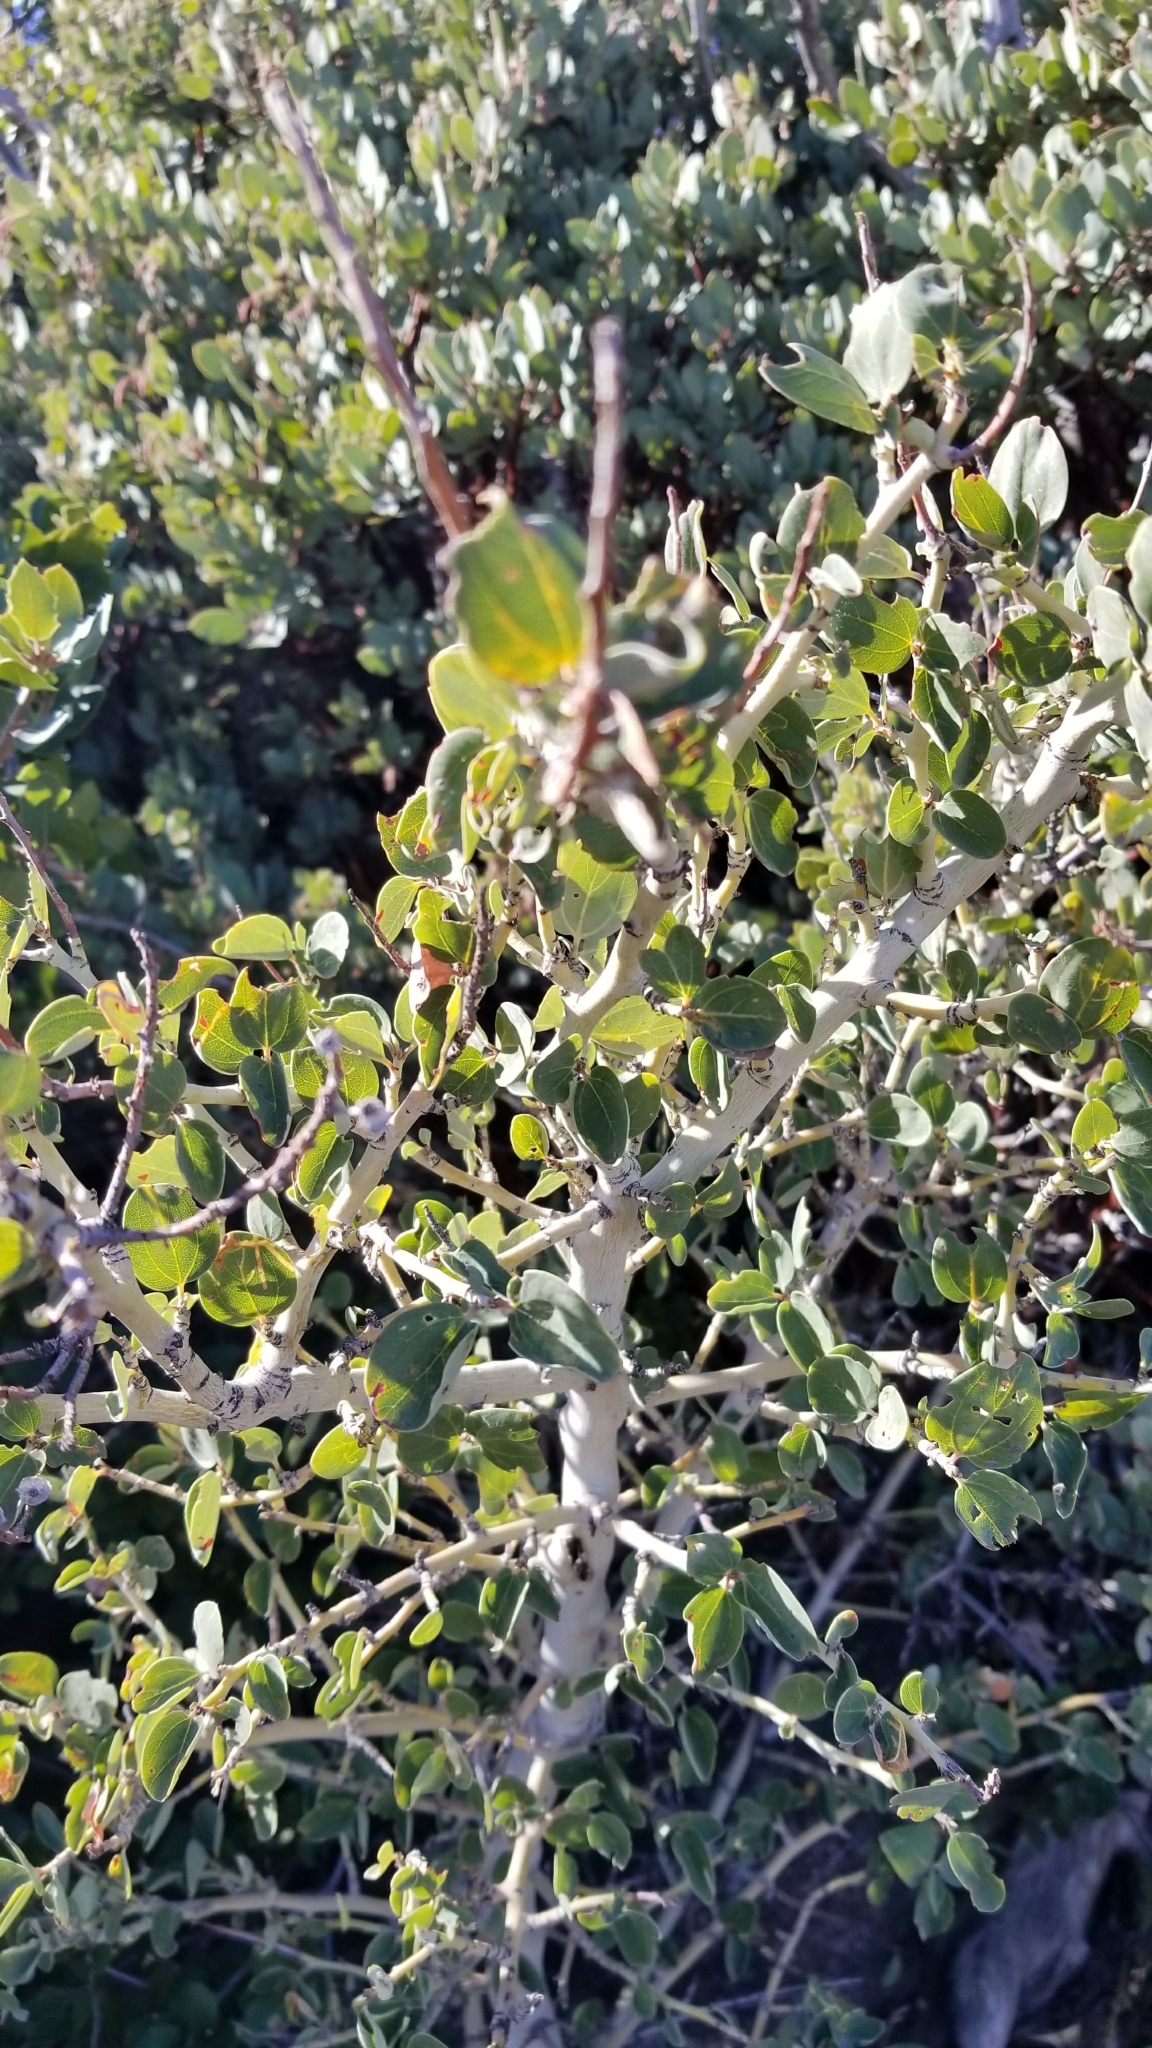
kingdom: Plantae
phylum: Tracheophyta
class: Magnoliopsida
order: Rosales
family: Rhamnaceae
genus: Ceanothus
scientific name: Ceanothus leucodermis
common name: Chaparral whitethorn
